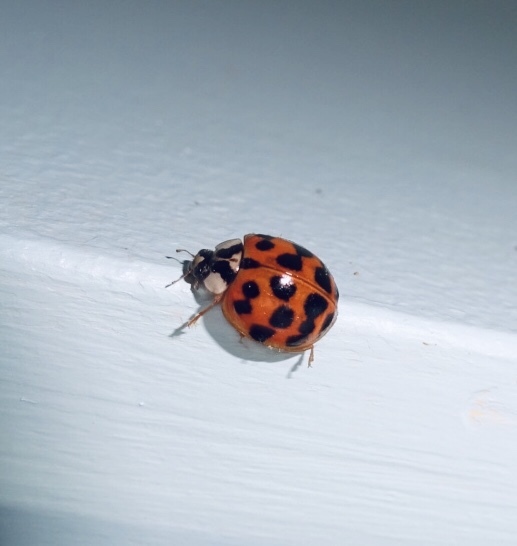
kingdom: Animalia
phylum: Arthropoda
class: Insecta
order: Coleoptera
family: Coccinellidae
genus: Harmonia
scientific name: Harmonia axyridis
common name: Harlequin ladybird
